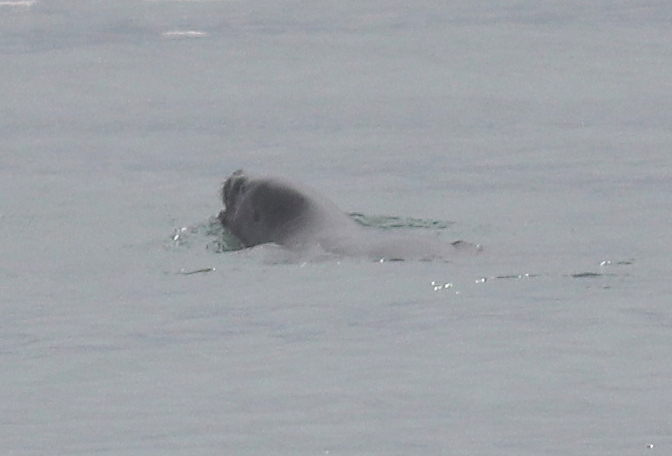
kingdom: Animalia
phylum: Chordata
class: Mammalia
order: Carnivora
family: Otariidae
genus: Otaria
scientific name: Otaria byronia
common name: South american sea lion
